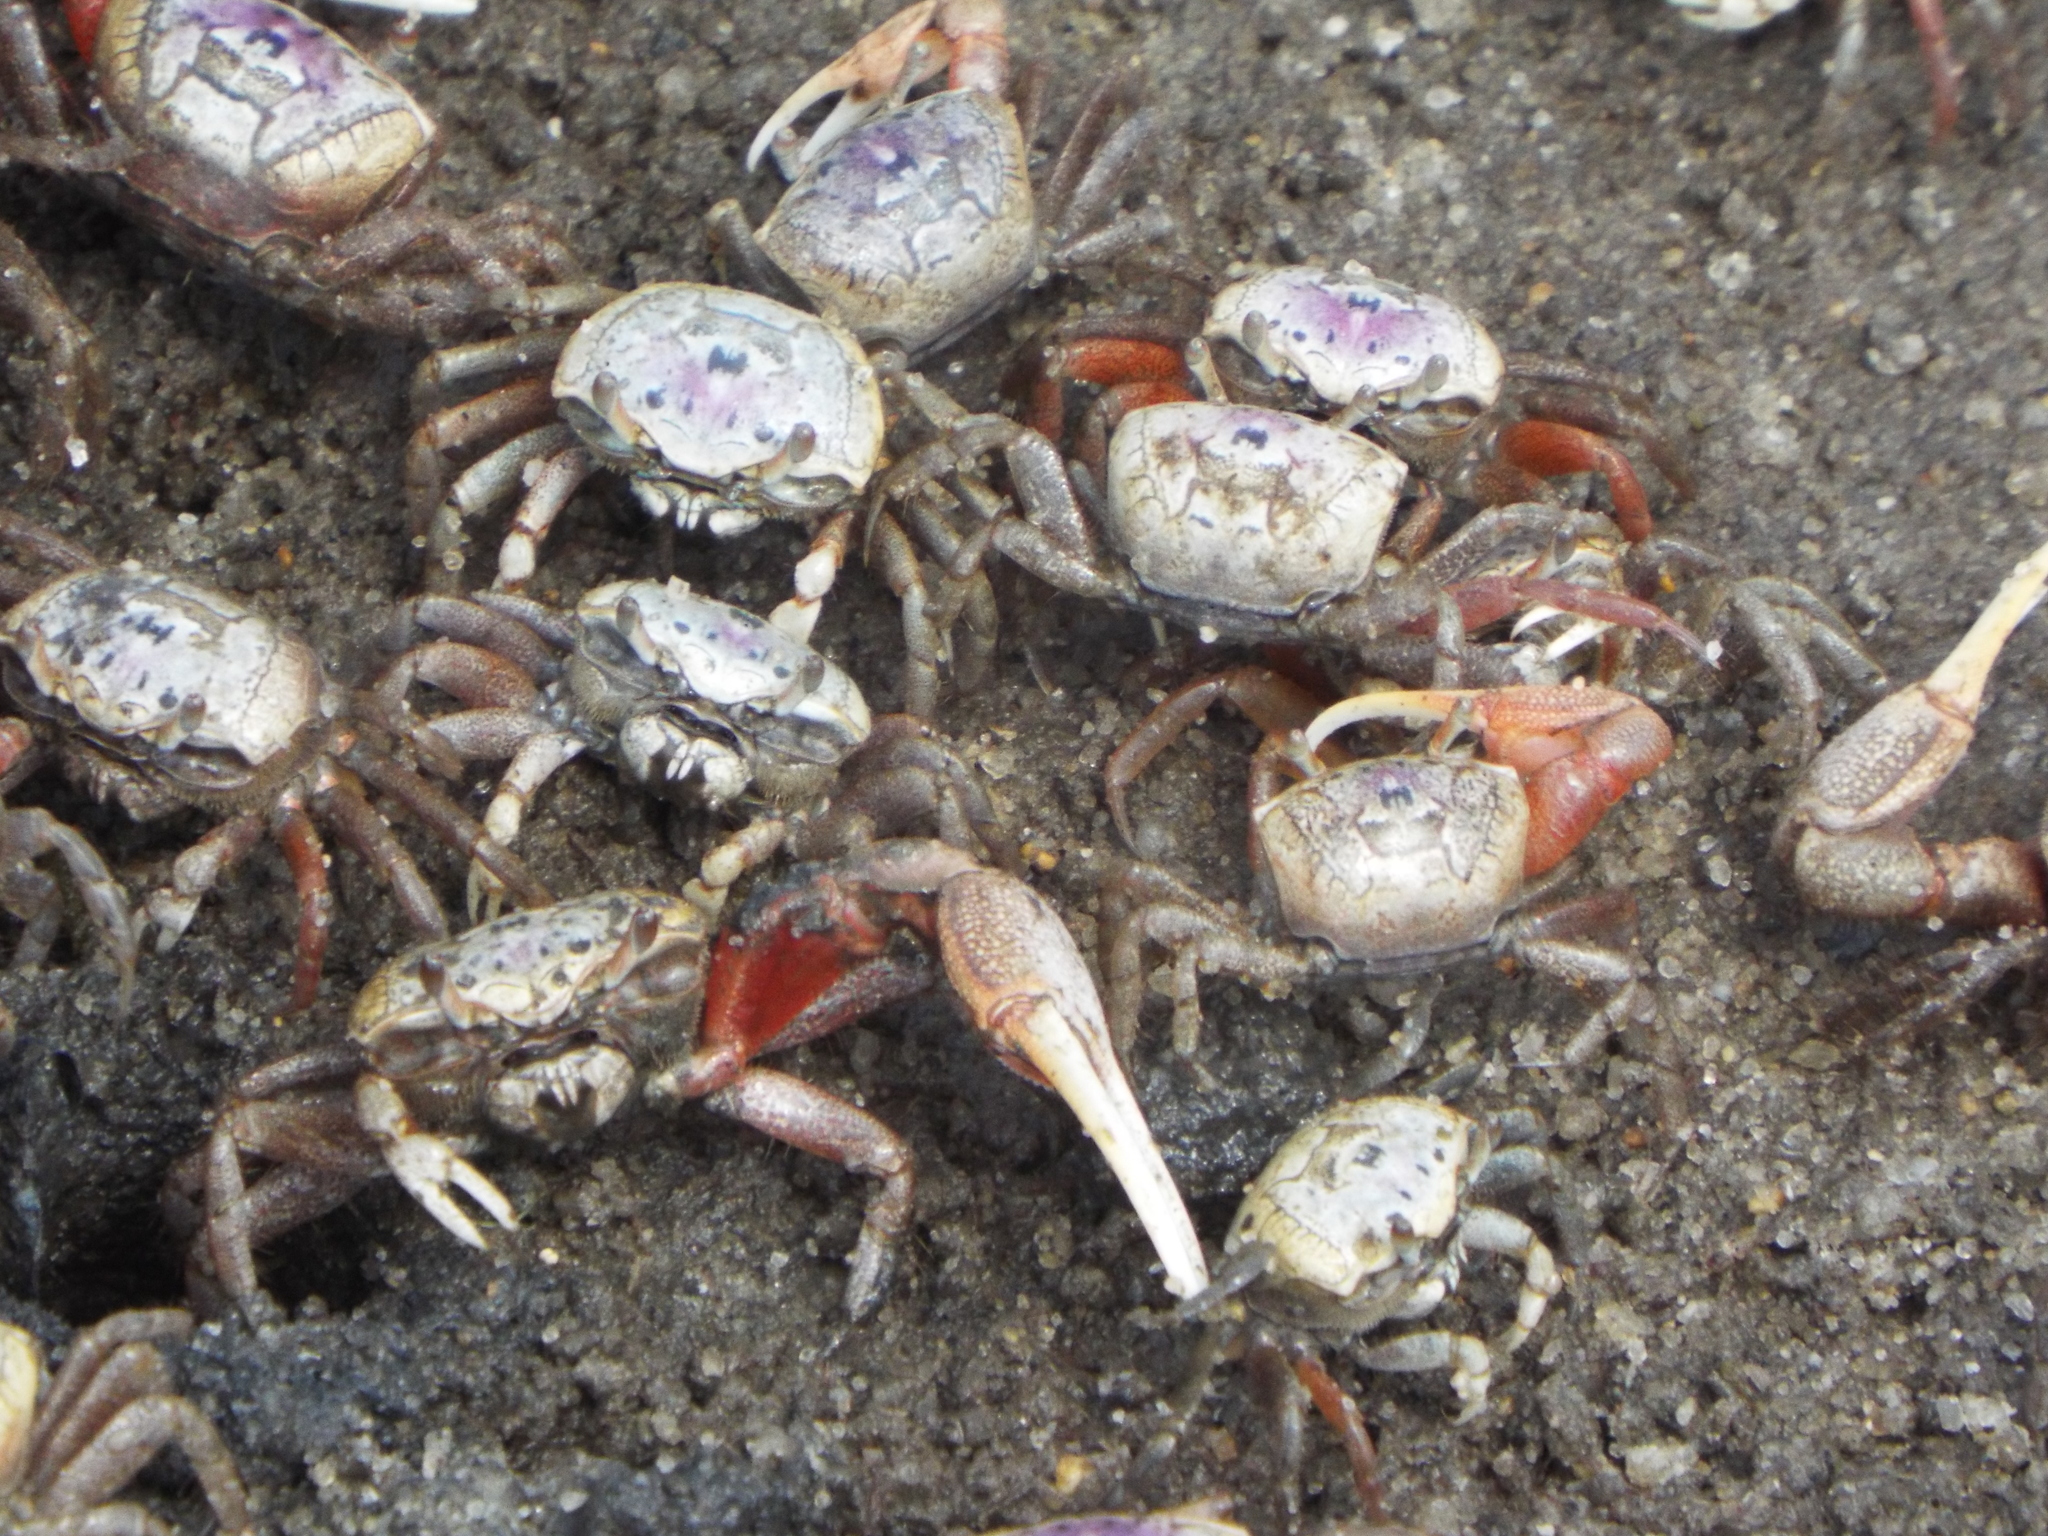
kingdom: Animalia
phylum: Arthropoda
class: Malacostraca
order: Decapoda
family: Ocypodidae
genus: Leptuca
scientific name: Leptuca pugilator
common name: Atlantic sand fiddler crab
